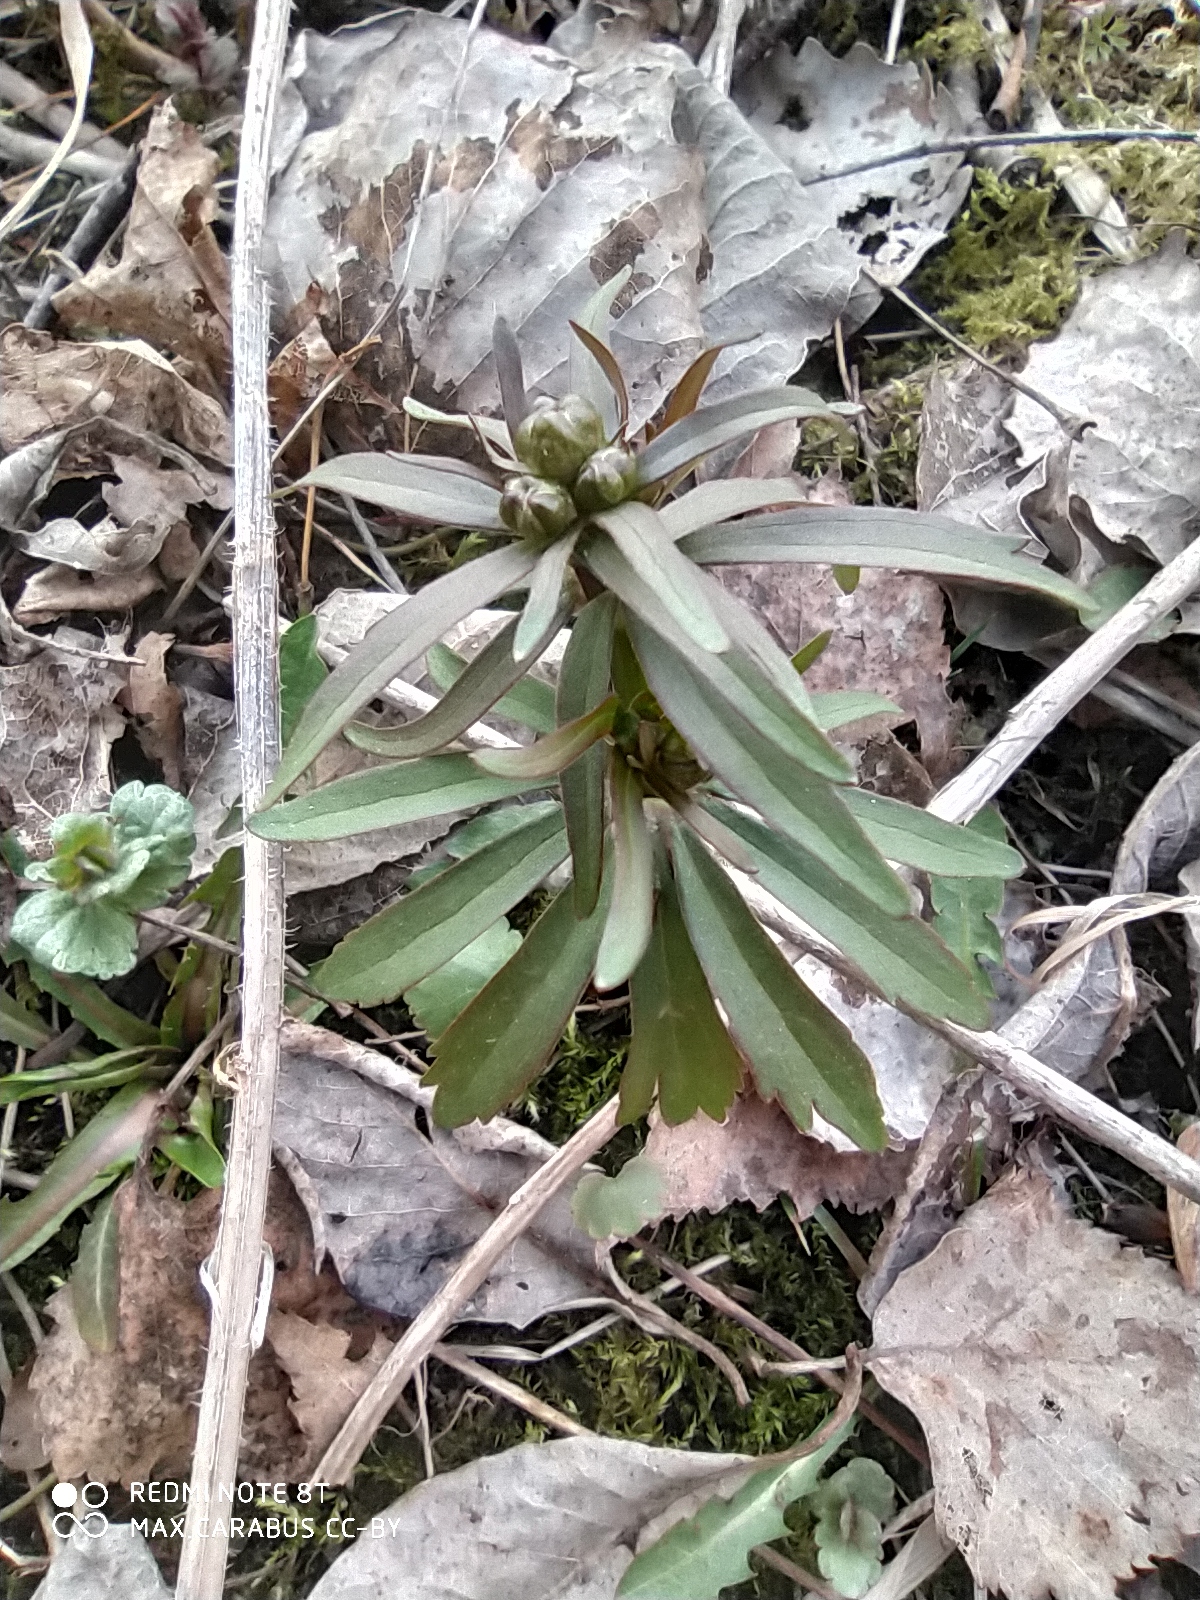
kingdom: Plantae
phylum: Tracheophyta
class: Magnoliopsida
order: Ranunculales
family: Ranunculaceae
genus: Ranunculus
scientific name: Ranunculus cassubicus
